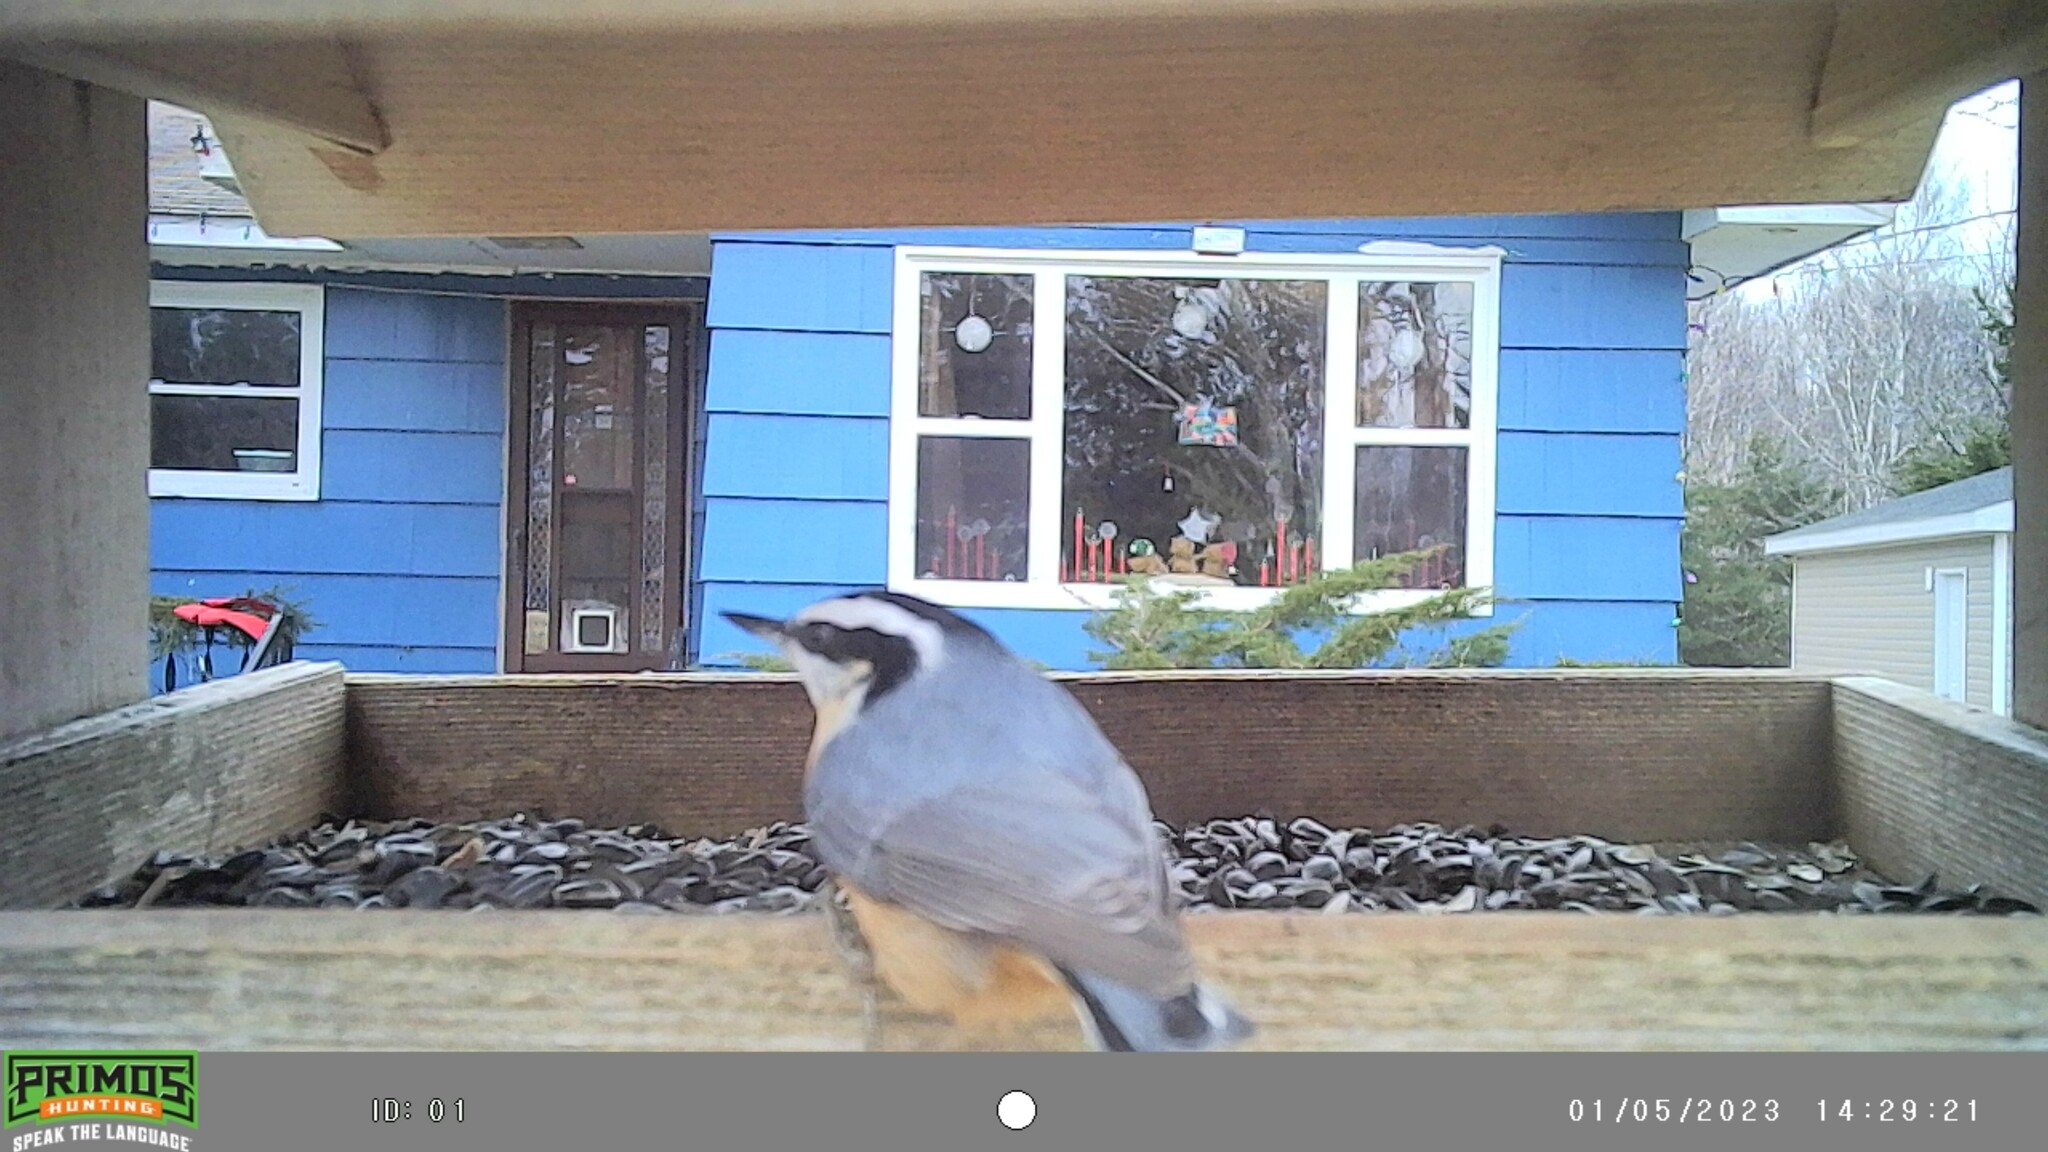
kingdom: Animalia
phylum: Chordata
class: Aves
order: Passeriformes
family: Sittidae
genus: Sitta
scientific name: Sitta canadensis
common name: Red-breasted nuthatch
